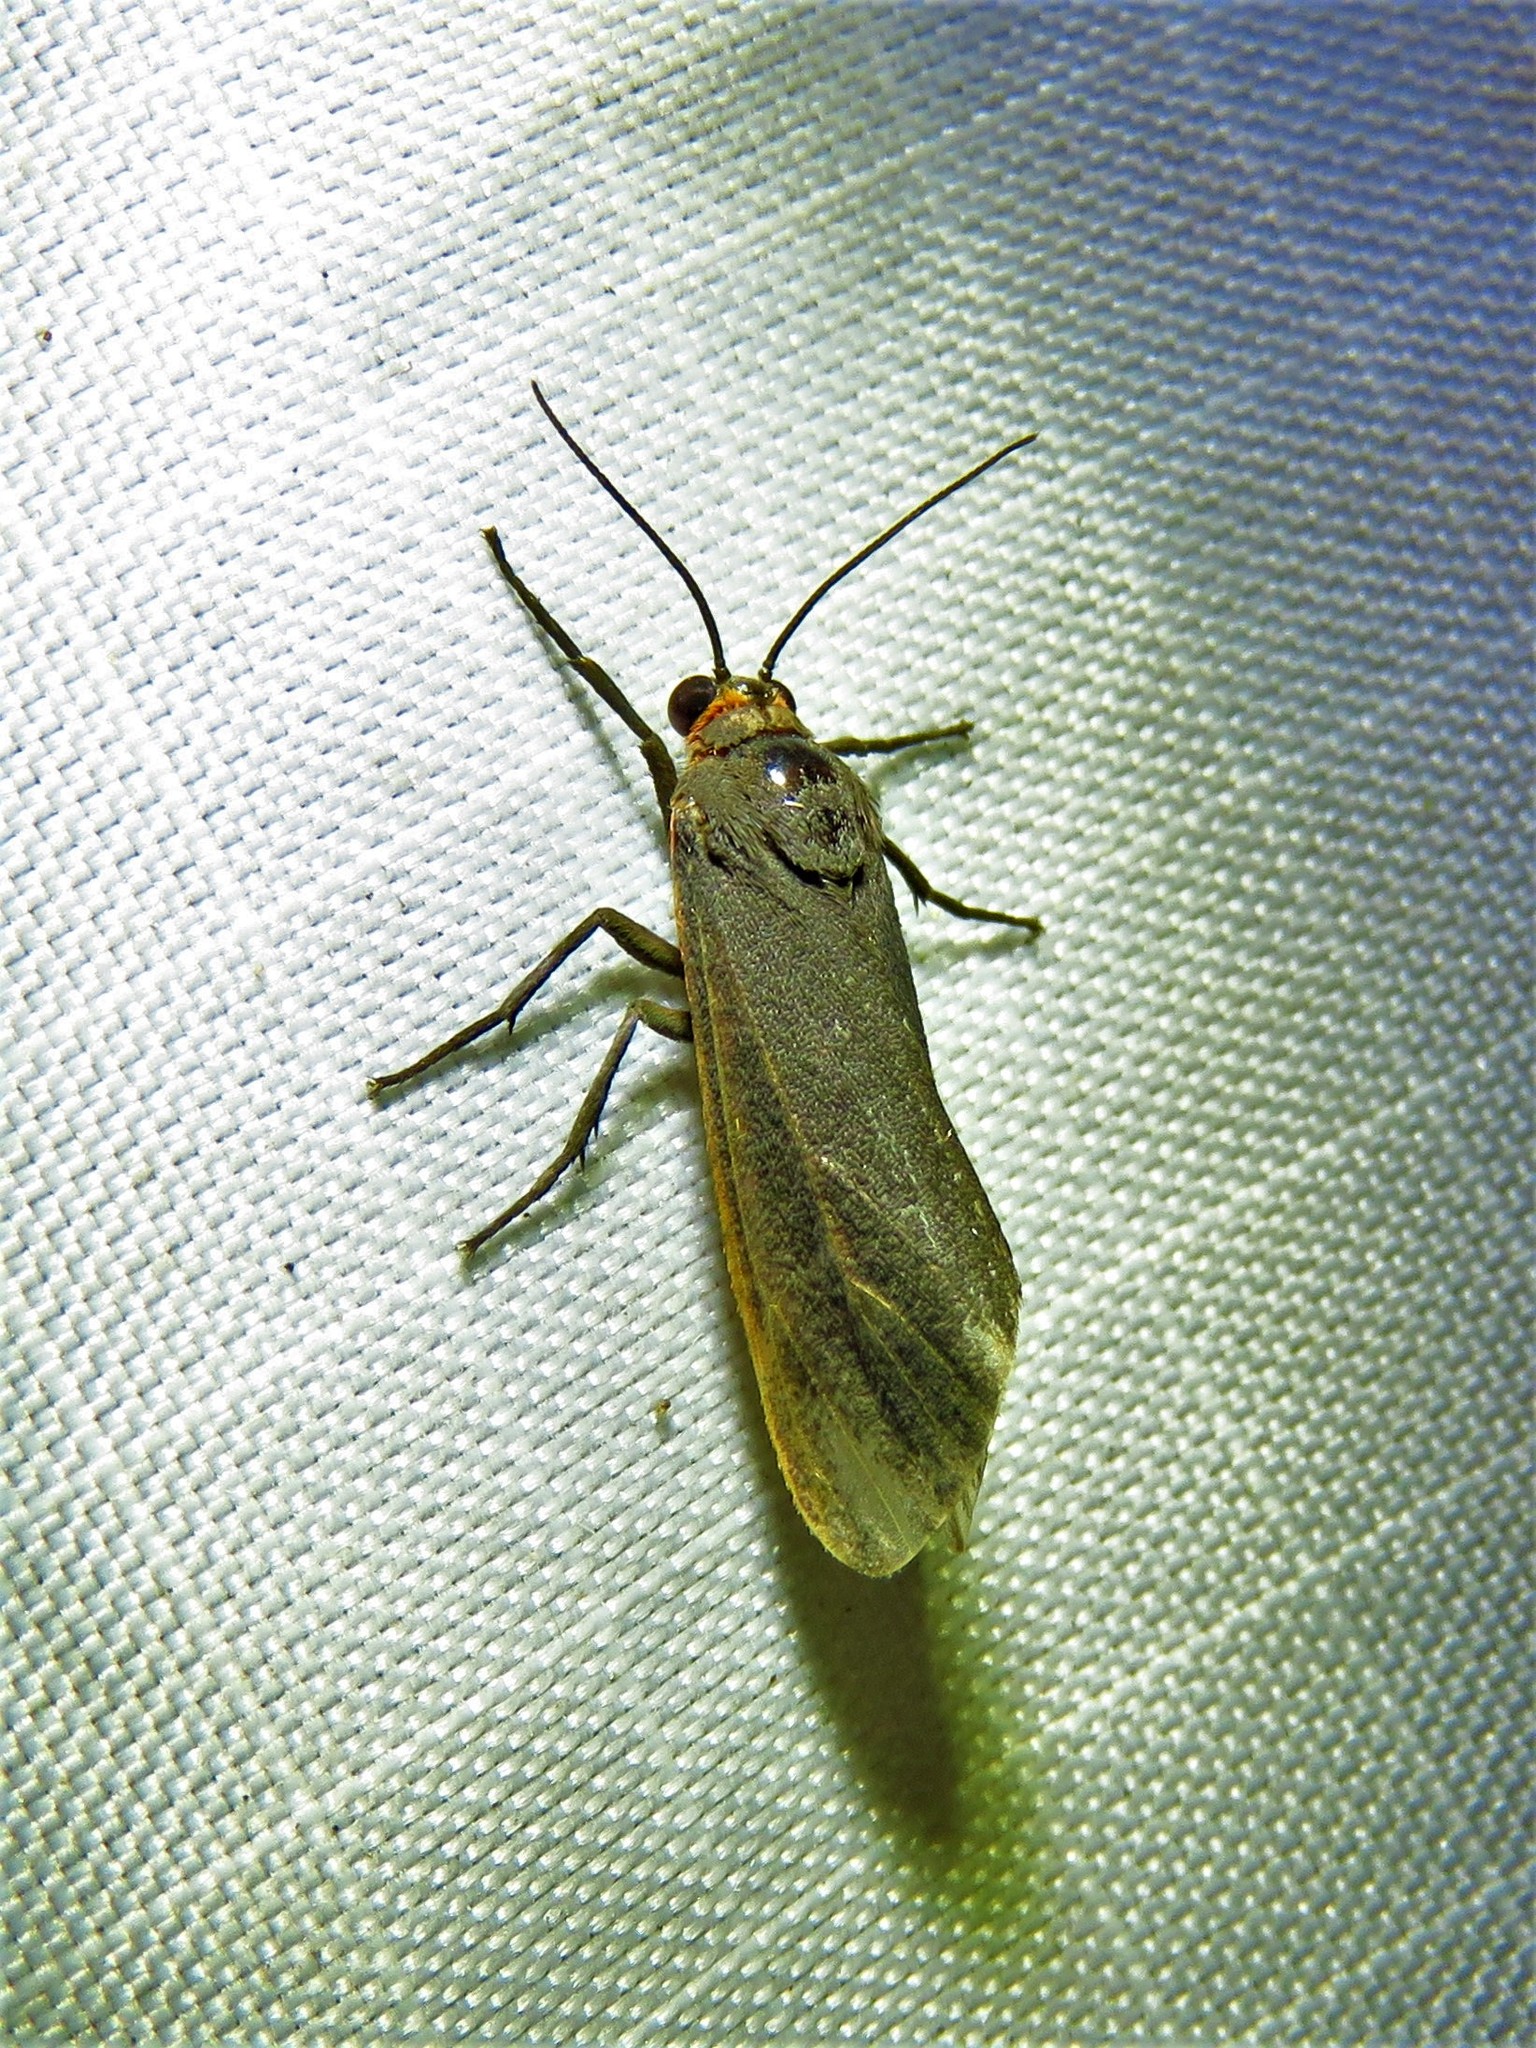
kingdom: Animalia
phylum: Arthropoda
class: Insecta
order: Lepidoptera
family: Erebidae
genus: Virbia
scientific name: Virbia laeta
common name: Joyful holomelina moth
